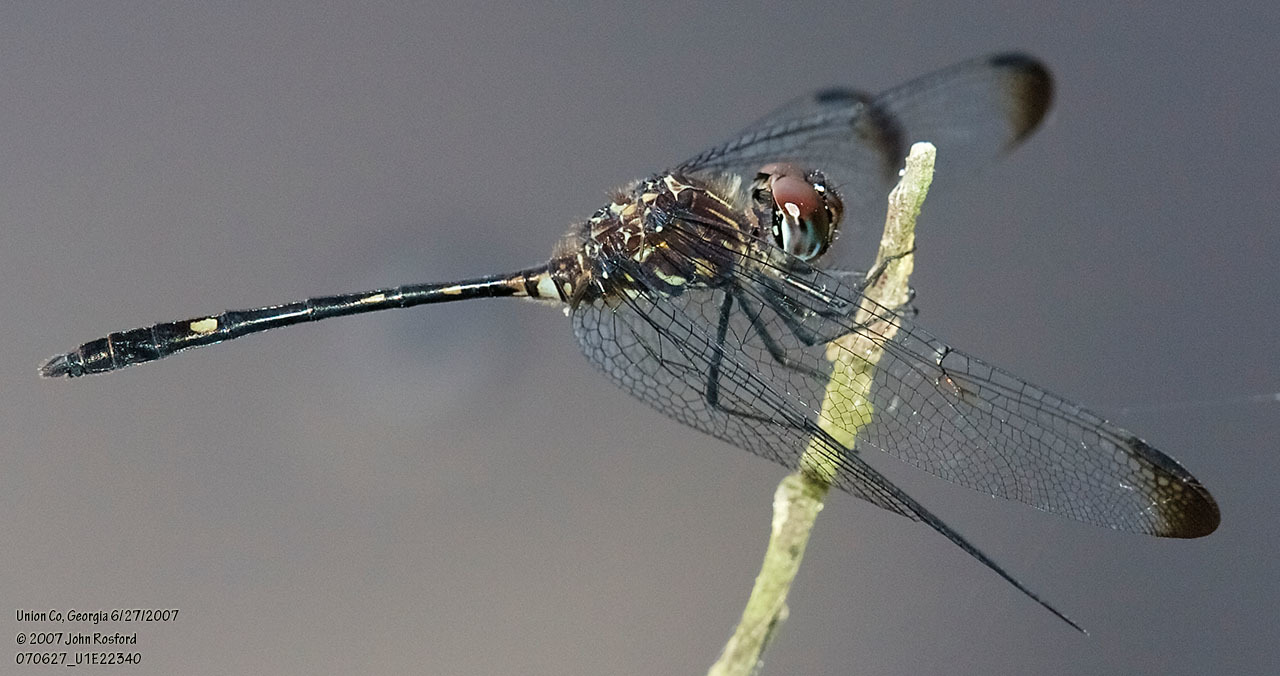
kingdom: Animalia
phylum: Arthropoda
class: Insecta
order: Odonata
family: Libellulidae
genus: Dythemis
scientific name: Dythemis velox
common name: Swift setwing
